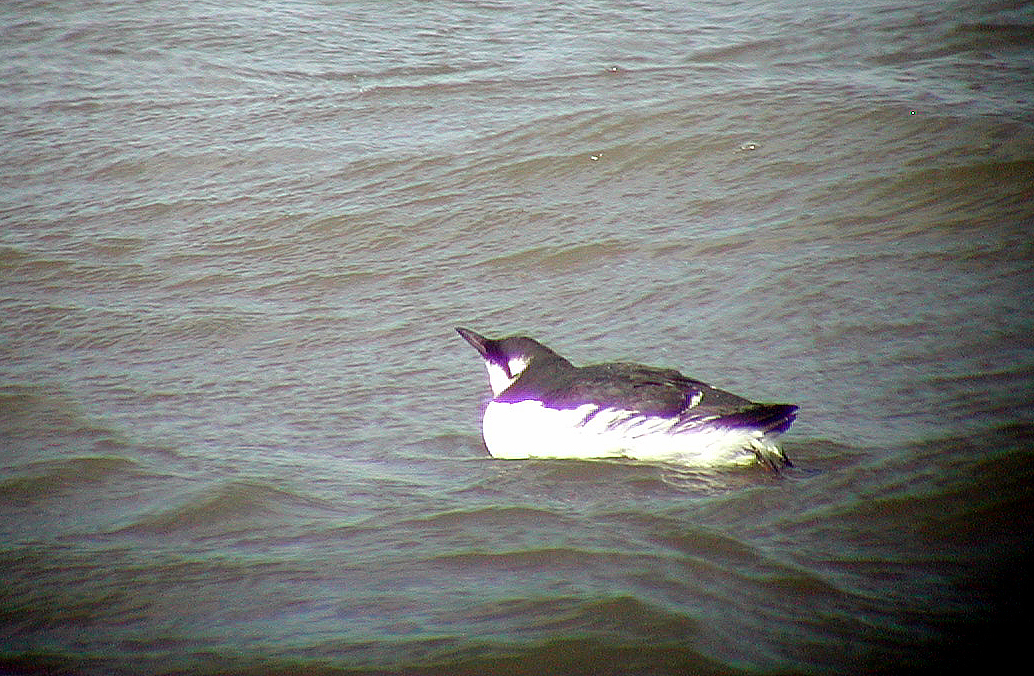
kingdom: Animalia
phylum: Chordata
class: Aves
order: Charadriiformes
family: Alcidae
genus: Uria
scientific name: Uria aalge
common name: Common murre
